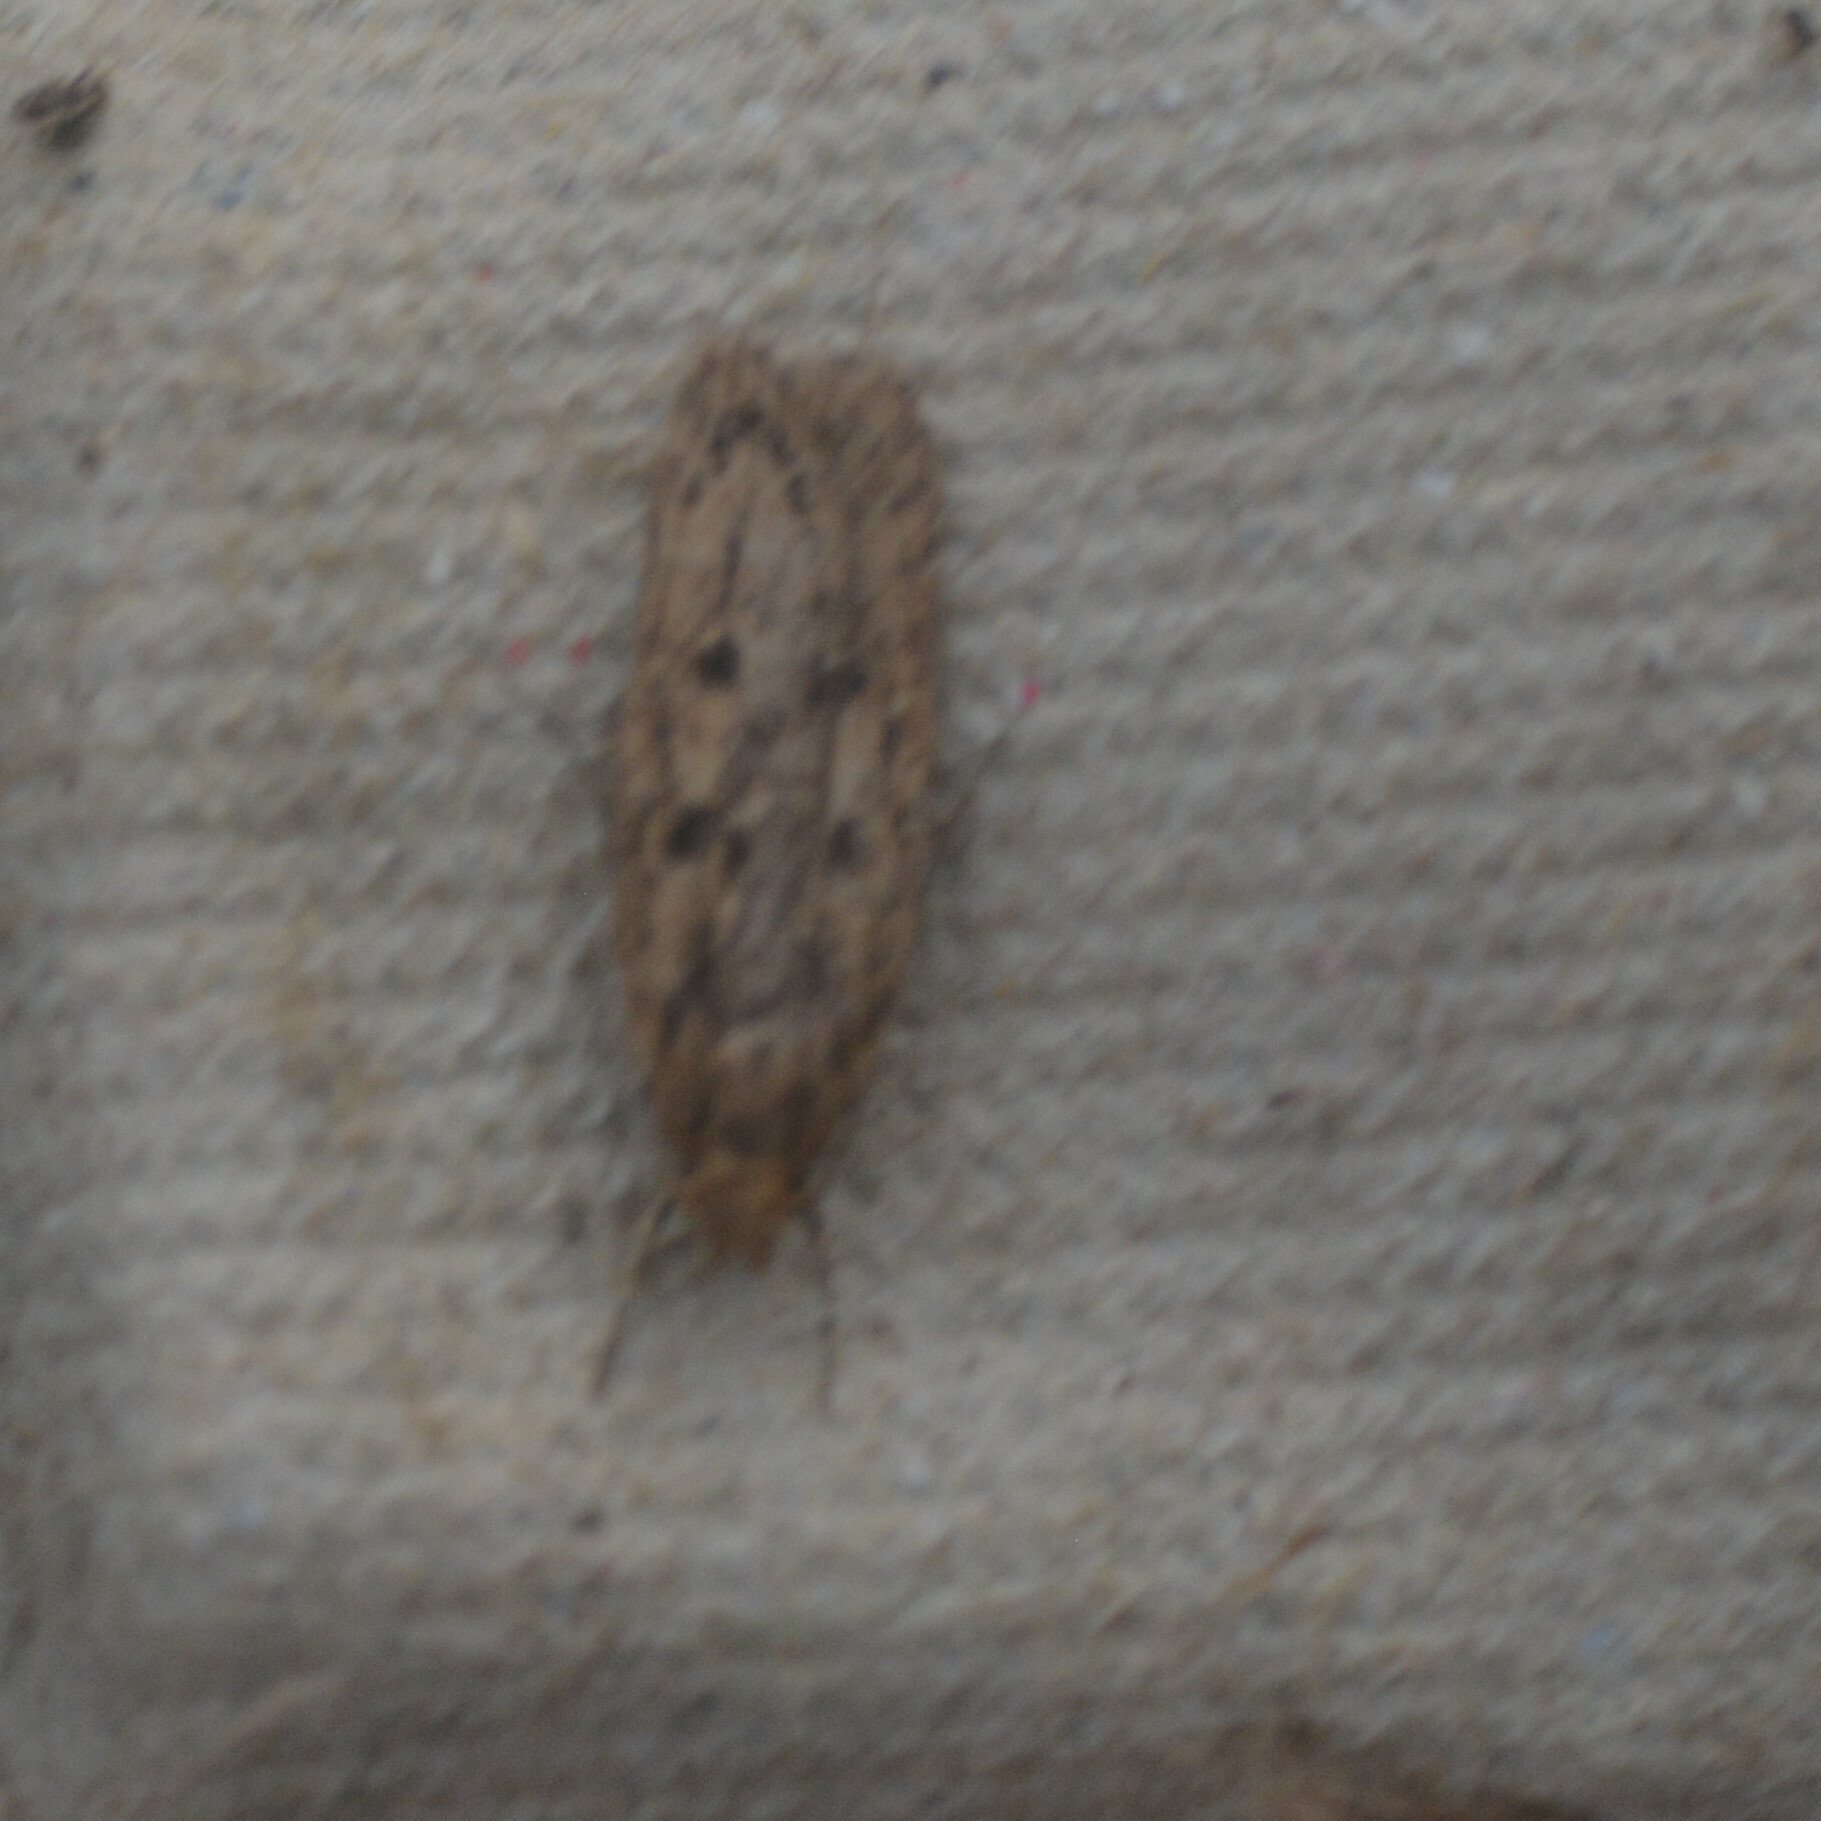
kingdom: Animalia
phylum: Arthropoda
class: Insecta
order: Lepidoptera
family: Oecophoridae
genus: Hofmannophila
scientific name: Hofmannophila pseudospretella
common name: Brown house moth
